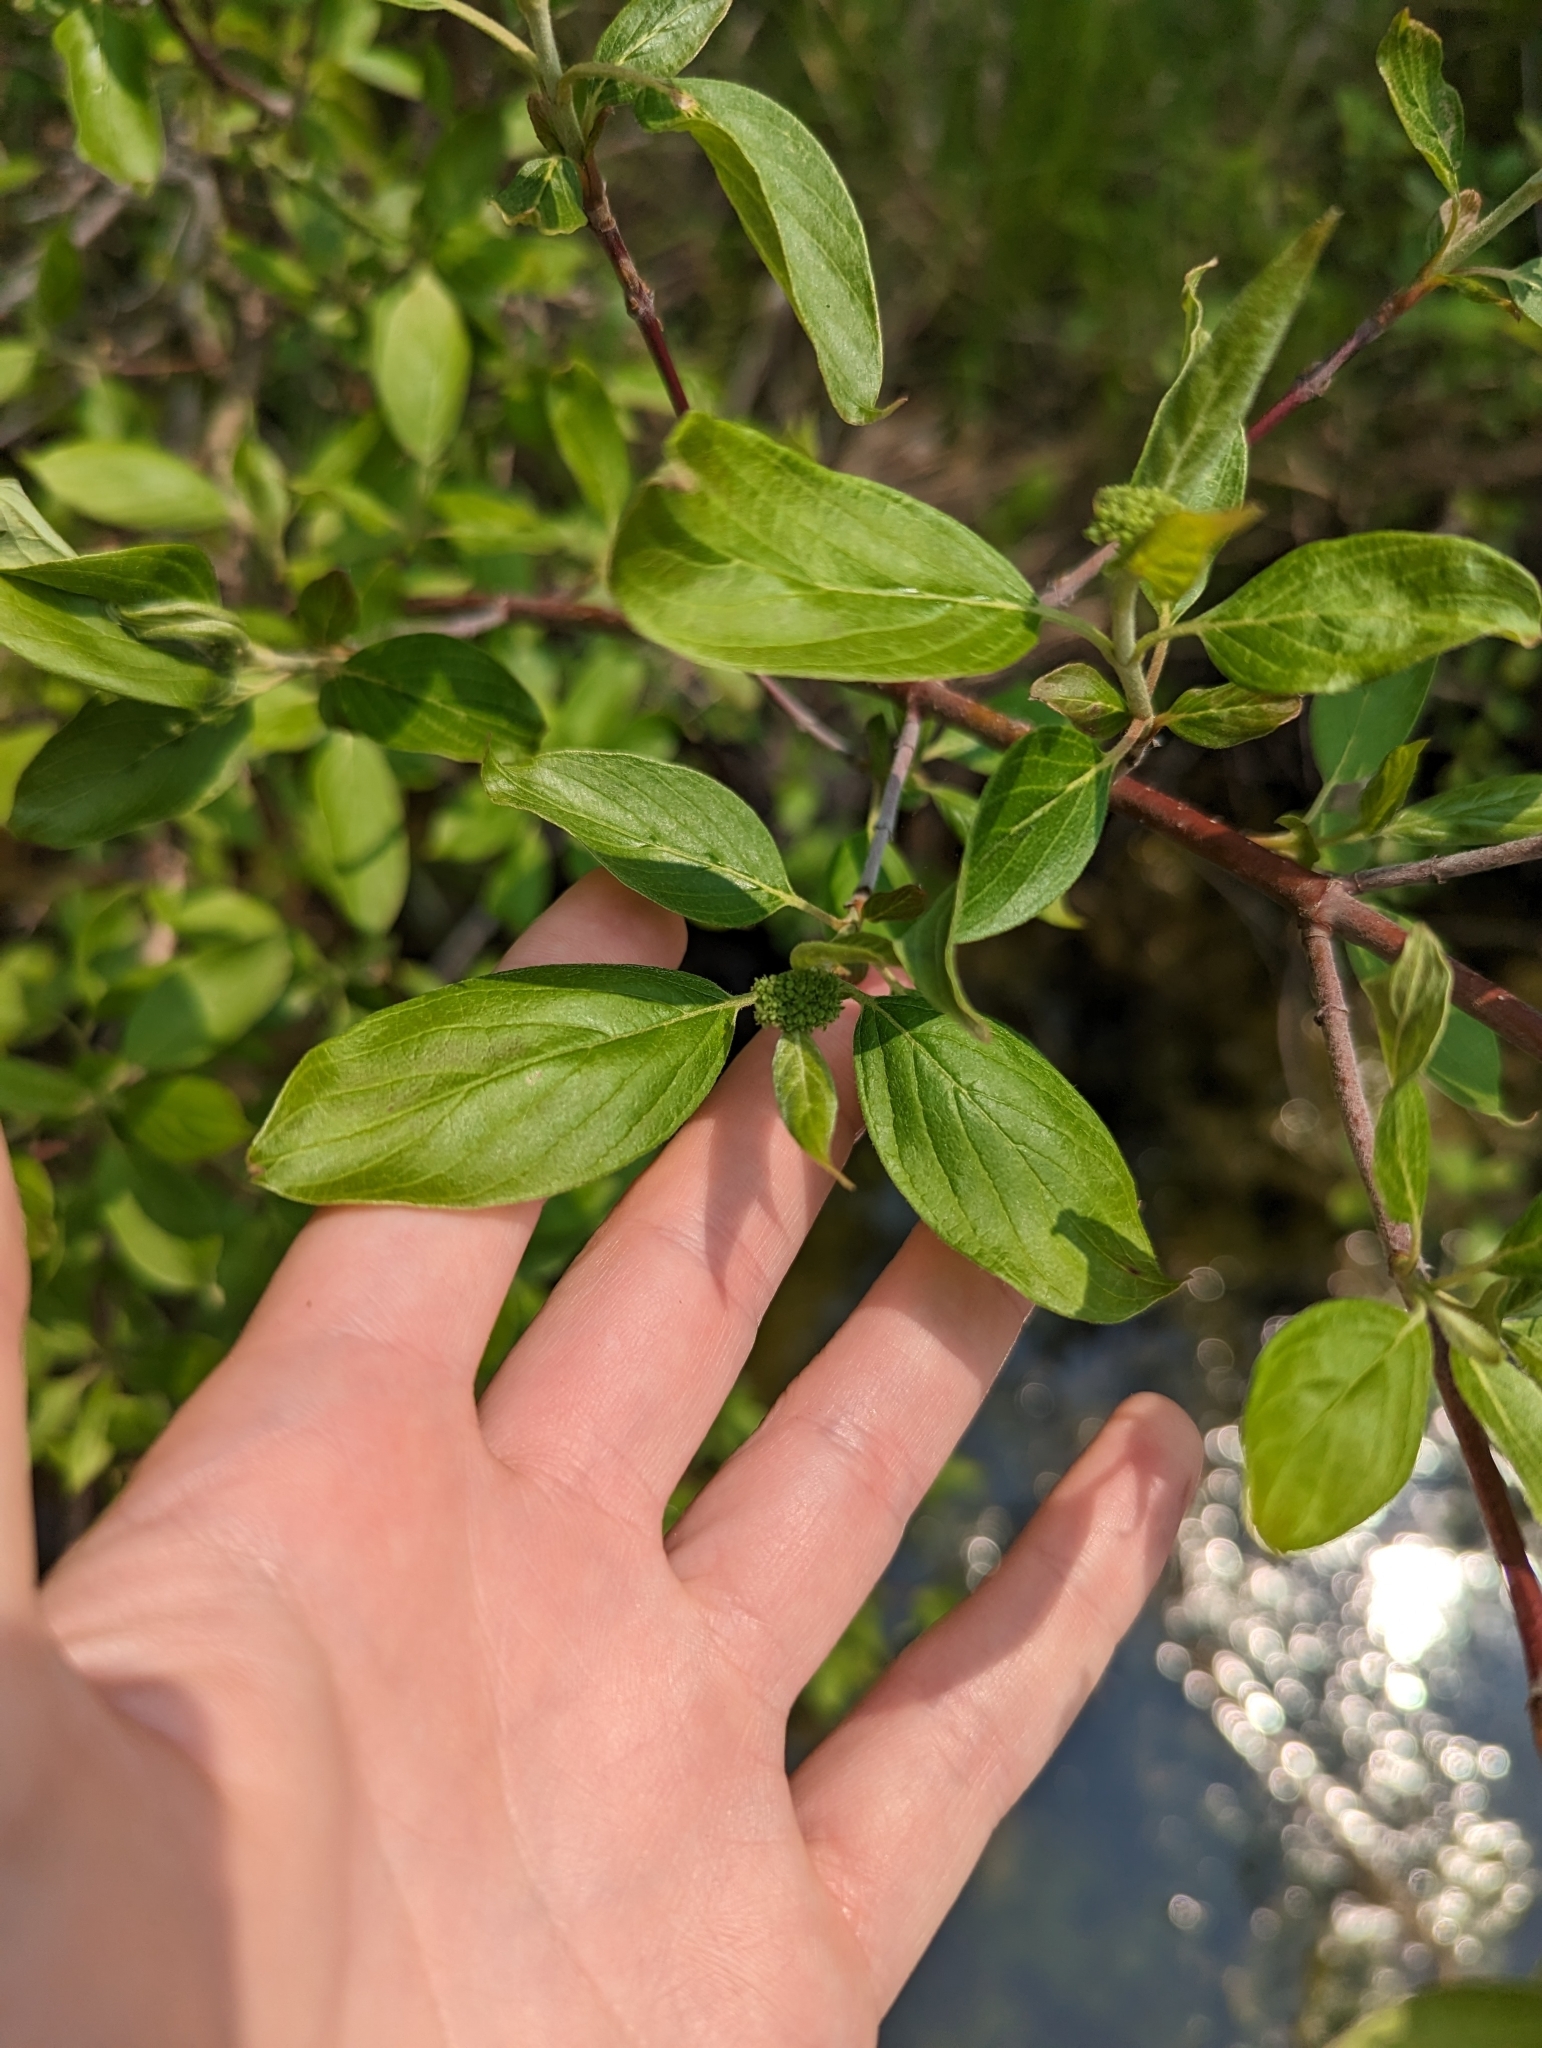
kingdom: Plantae
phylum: Tracheophyta
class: Magnoliopsida
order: Cornales
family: Cornaceae
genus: Cornus
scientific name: Cornus sericea
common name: Red-osier dogwood
